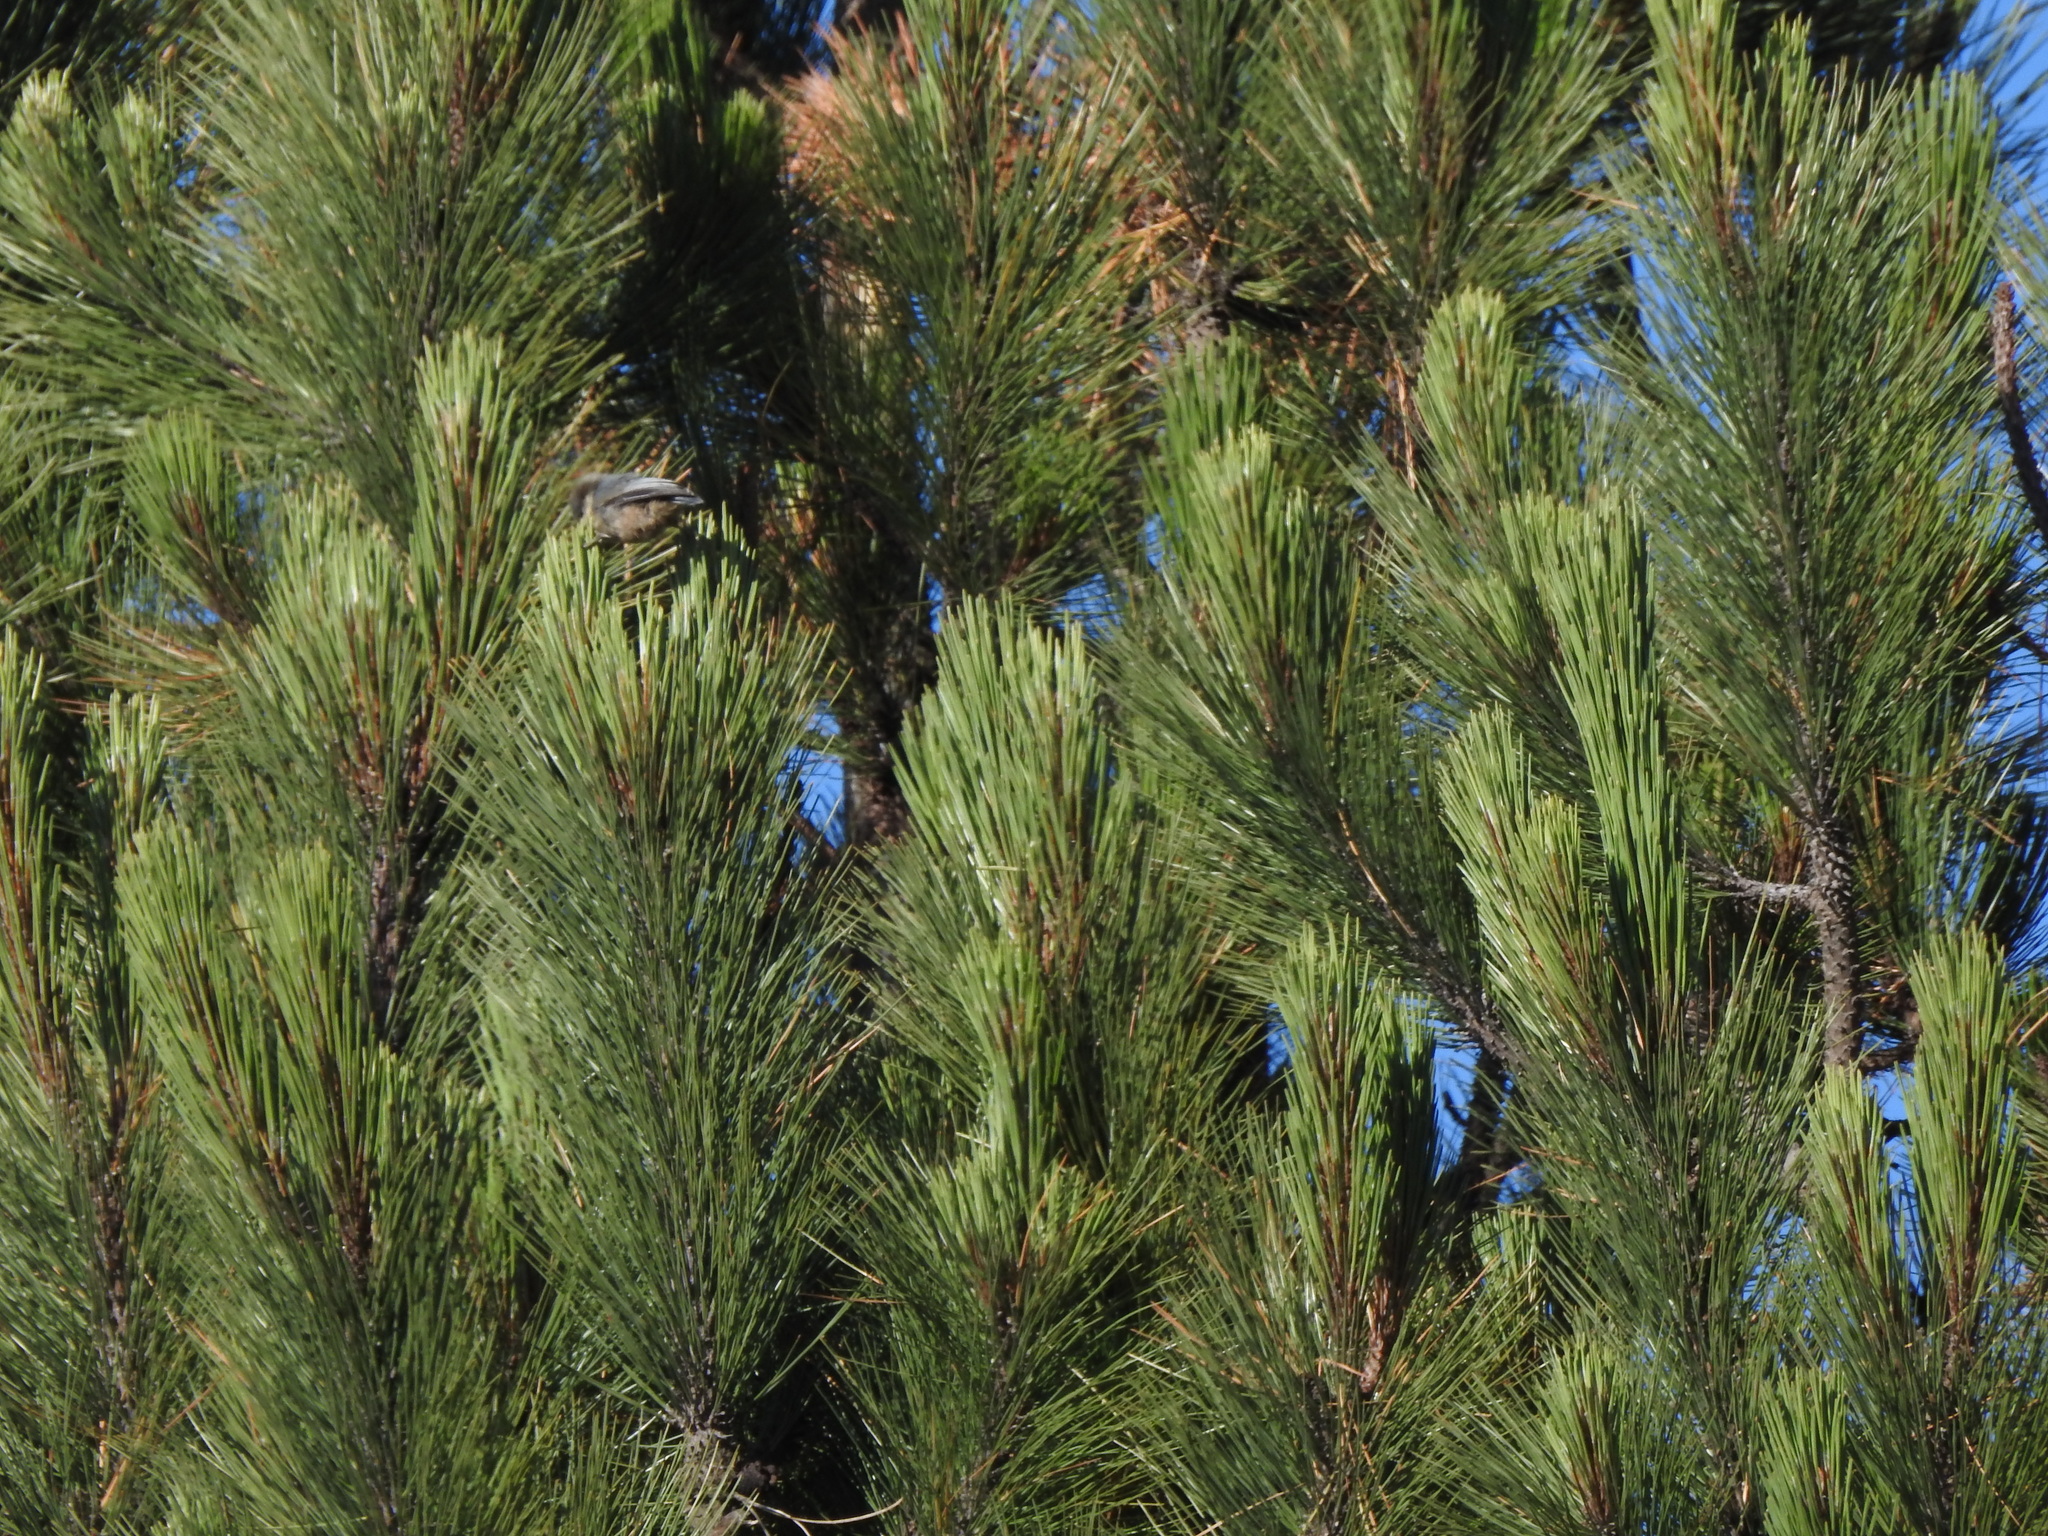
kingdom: Plantae
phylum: Tracheophyta
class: Pinopsida
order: Pinales
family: Pinaceae
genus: Pinus
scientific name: Pinus hartwegii
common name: Hartweg's pine
